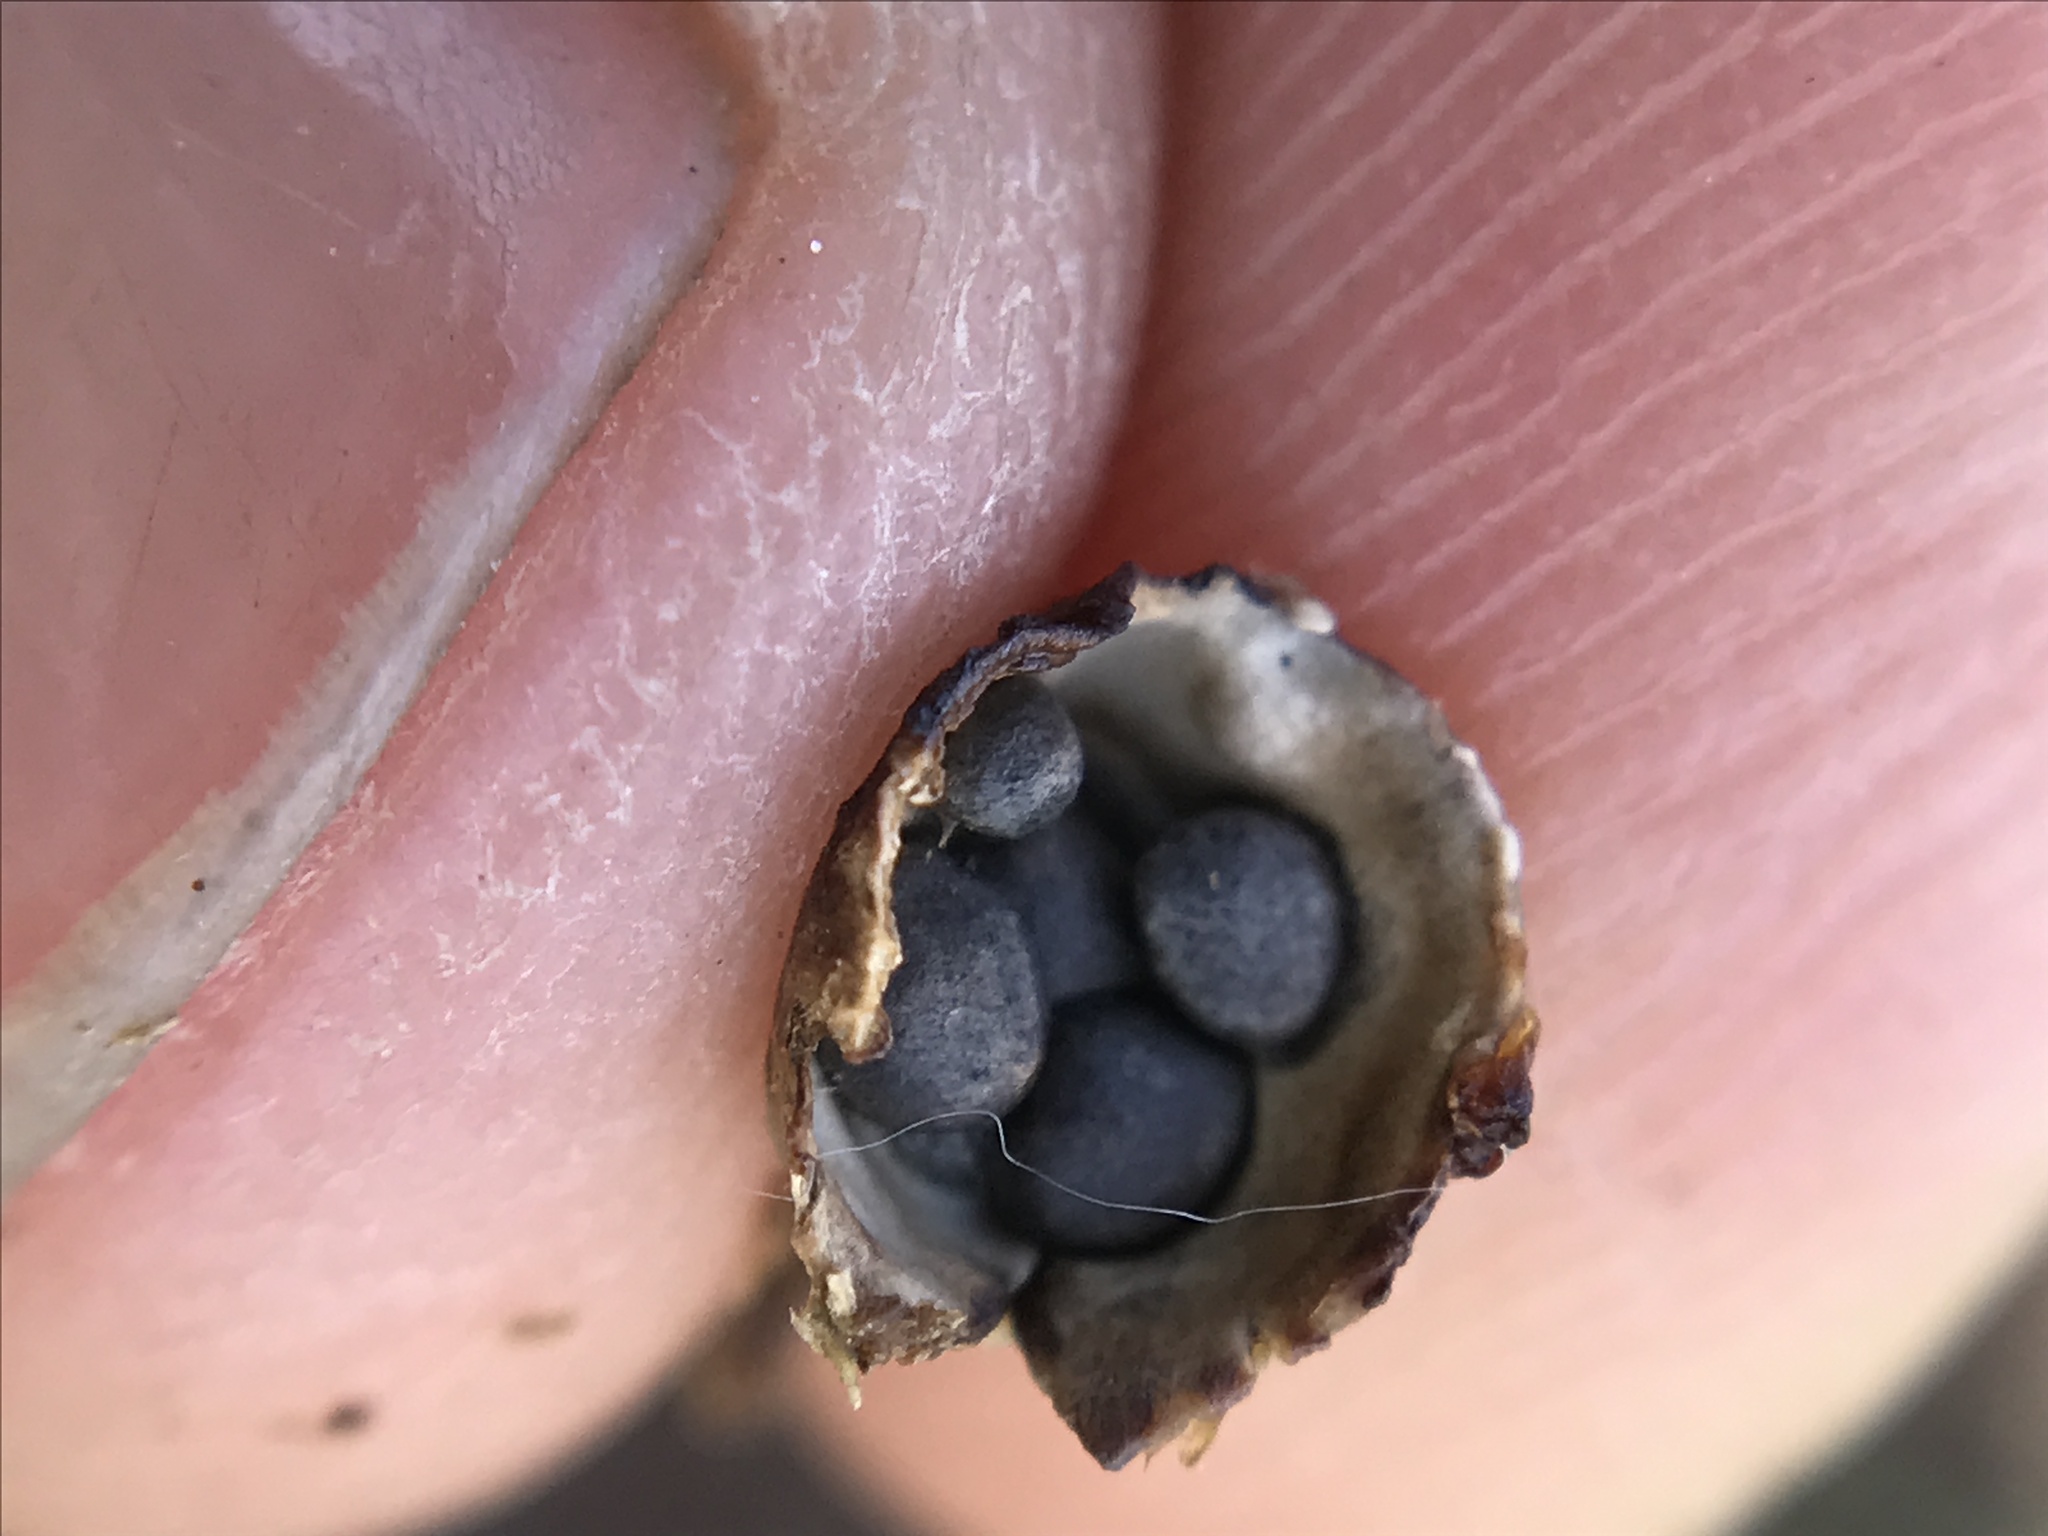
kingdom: Fungi
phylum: Basidiomycota
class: Agaricomycetes
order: Agaricales
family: Agaricaceae
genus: Cyathus
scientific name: Cyathus stercoreus
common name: Dung bird's nest
